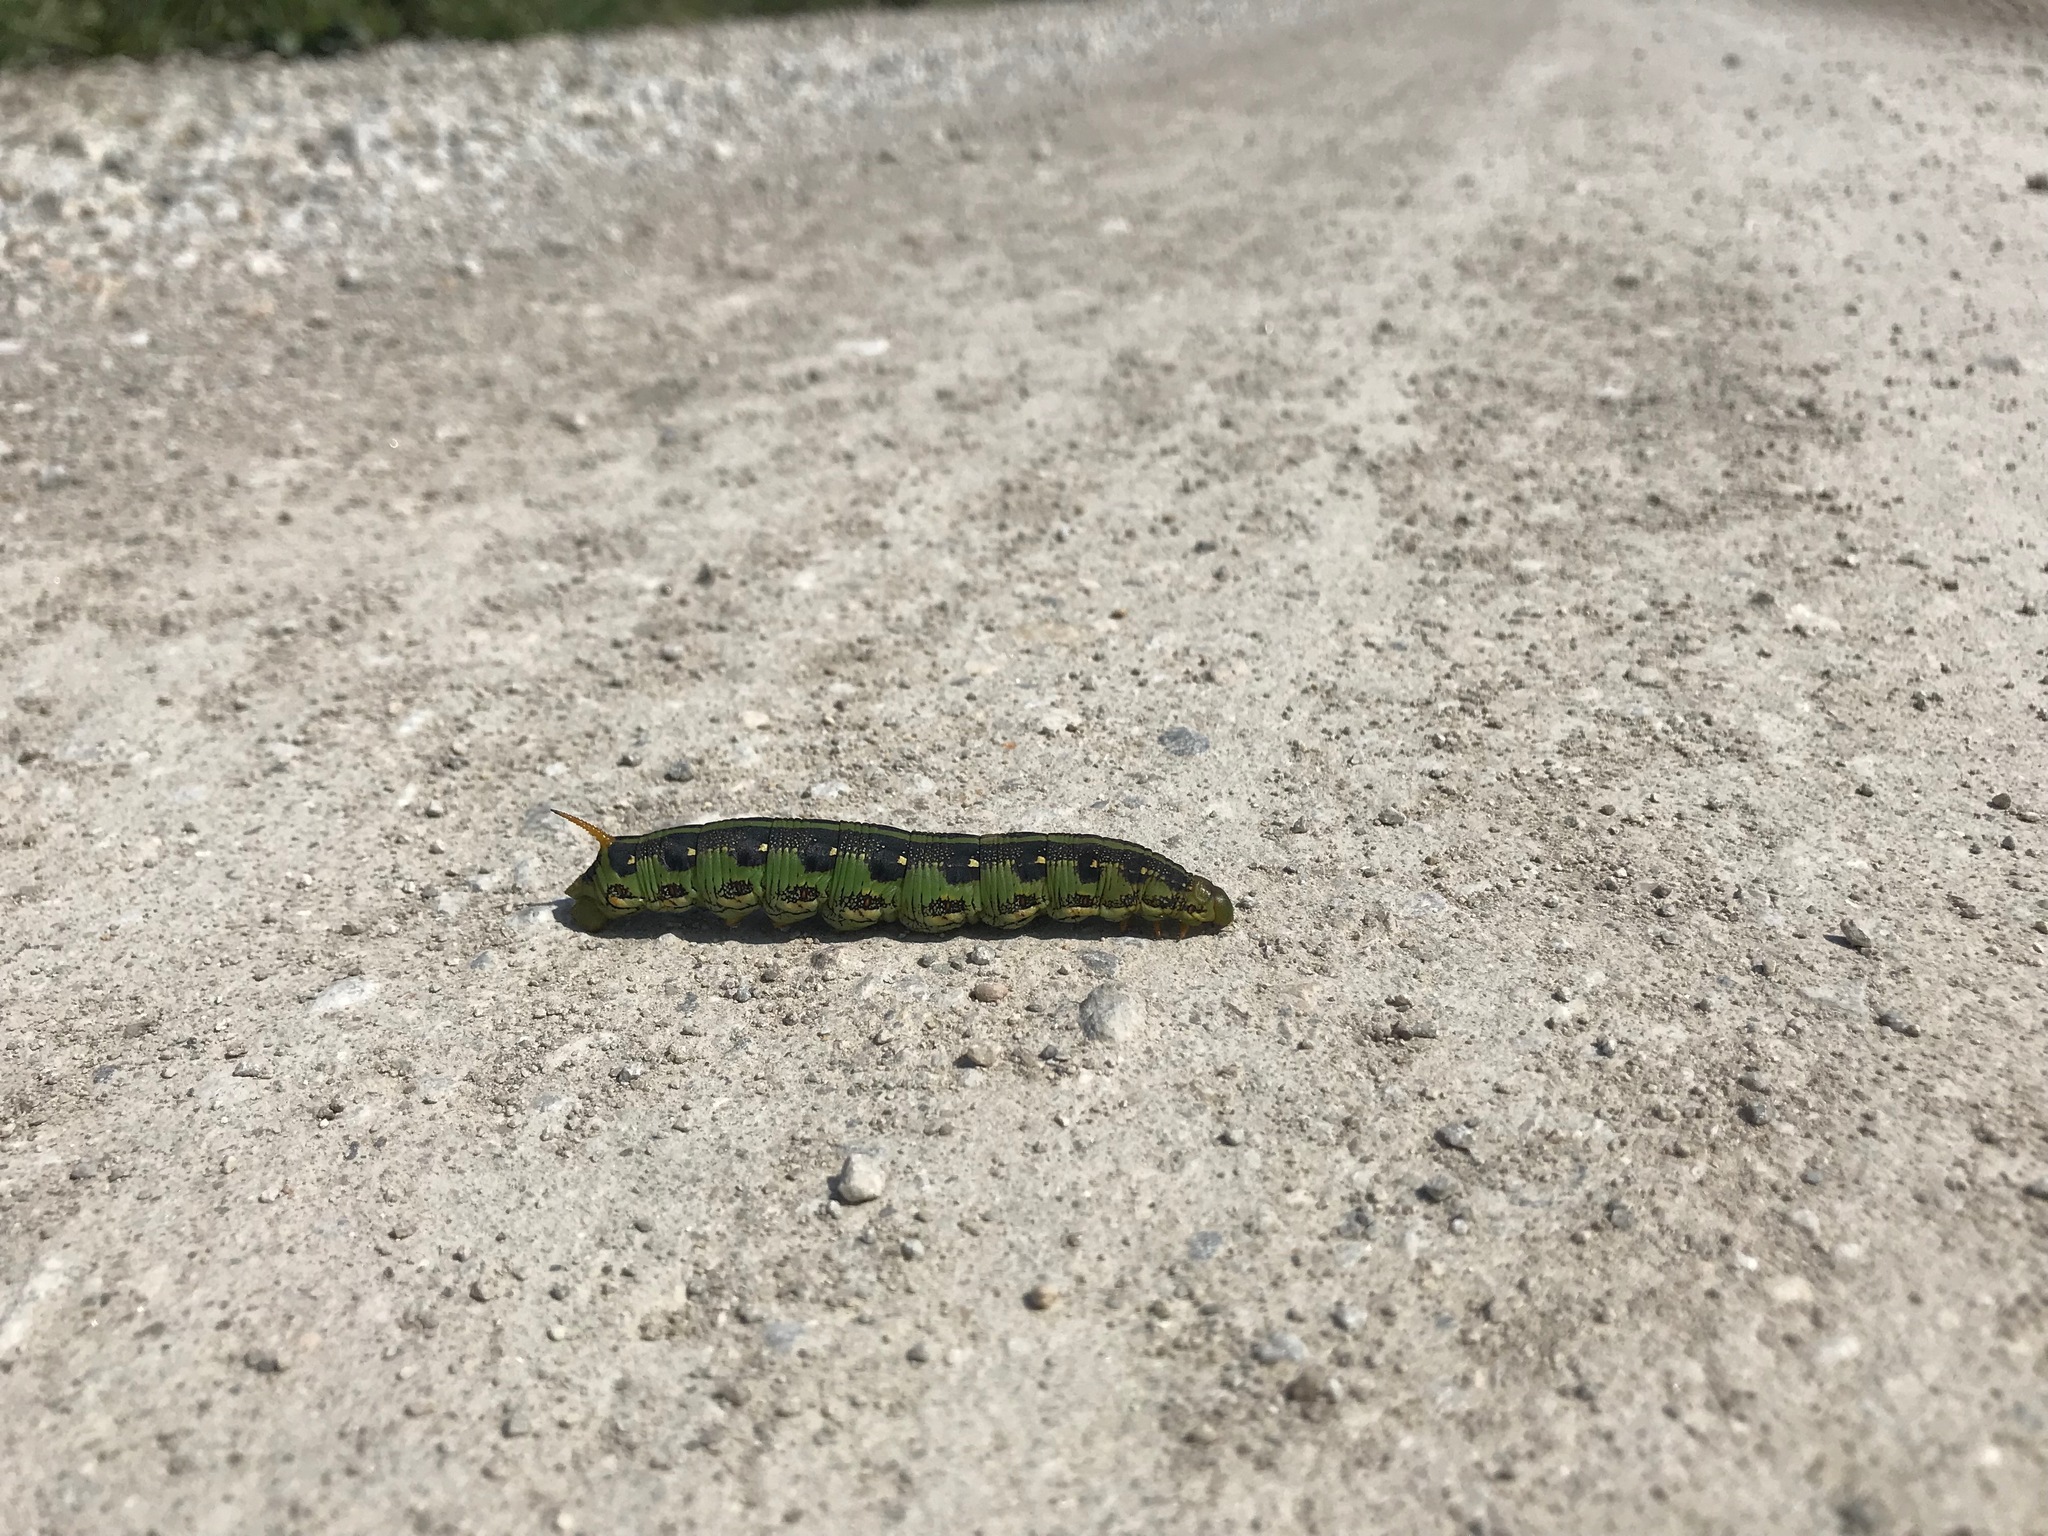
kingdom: Animalia
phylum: Arthropoda
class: Insecta
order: Lepidoptera
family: Sphingidae
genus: Hyles
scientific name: Hyles lineata
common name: White-lined sphinx
